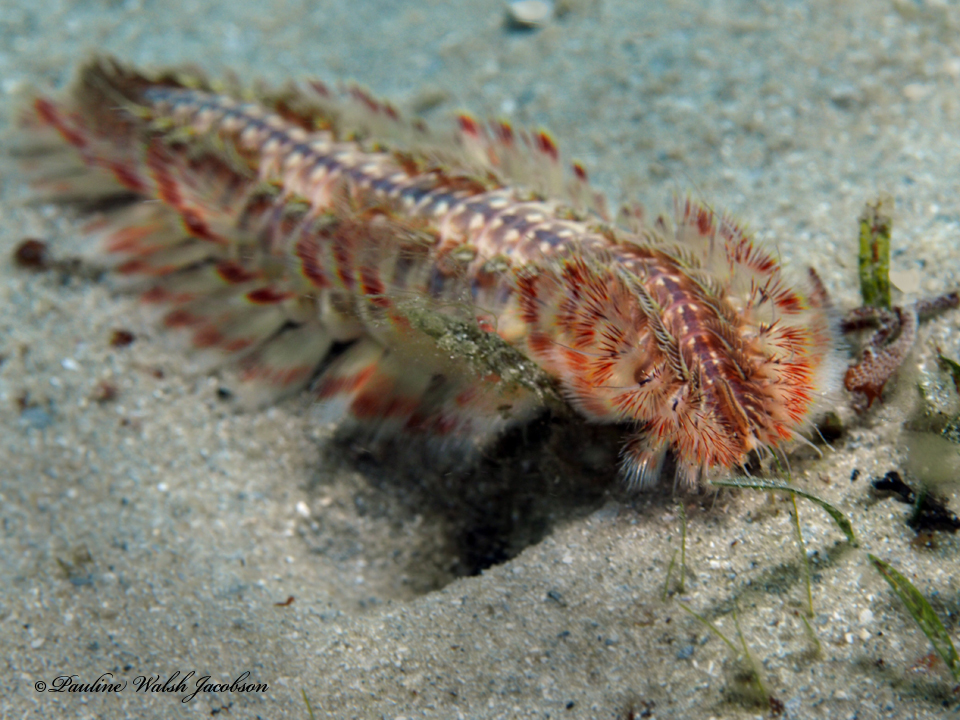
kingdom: Animalia
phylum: Annelida
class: Polychaeta
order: Amphinomida
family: Amphinomidae
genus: Chloeia
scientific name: Chloeia euglochis
